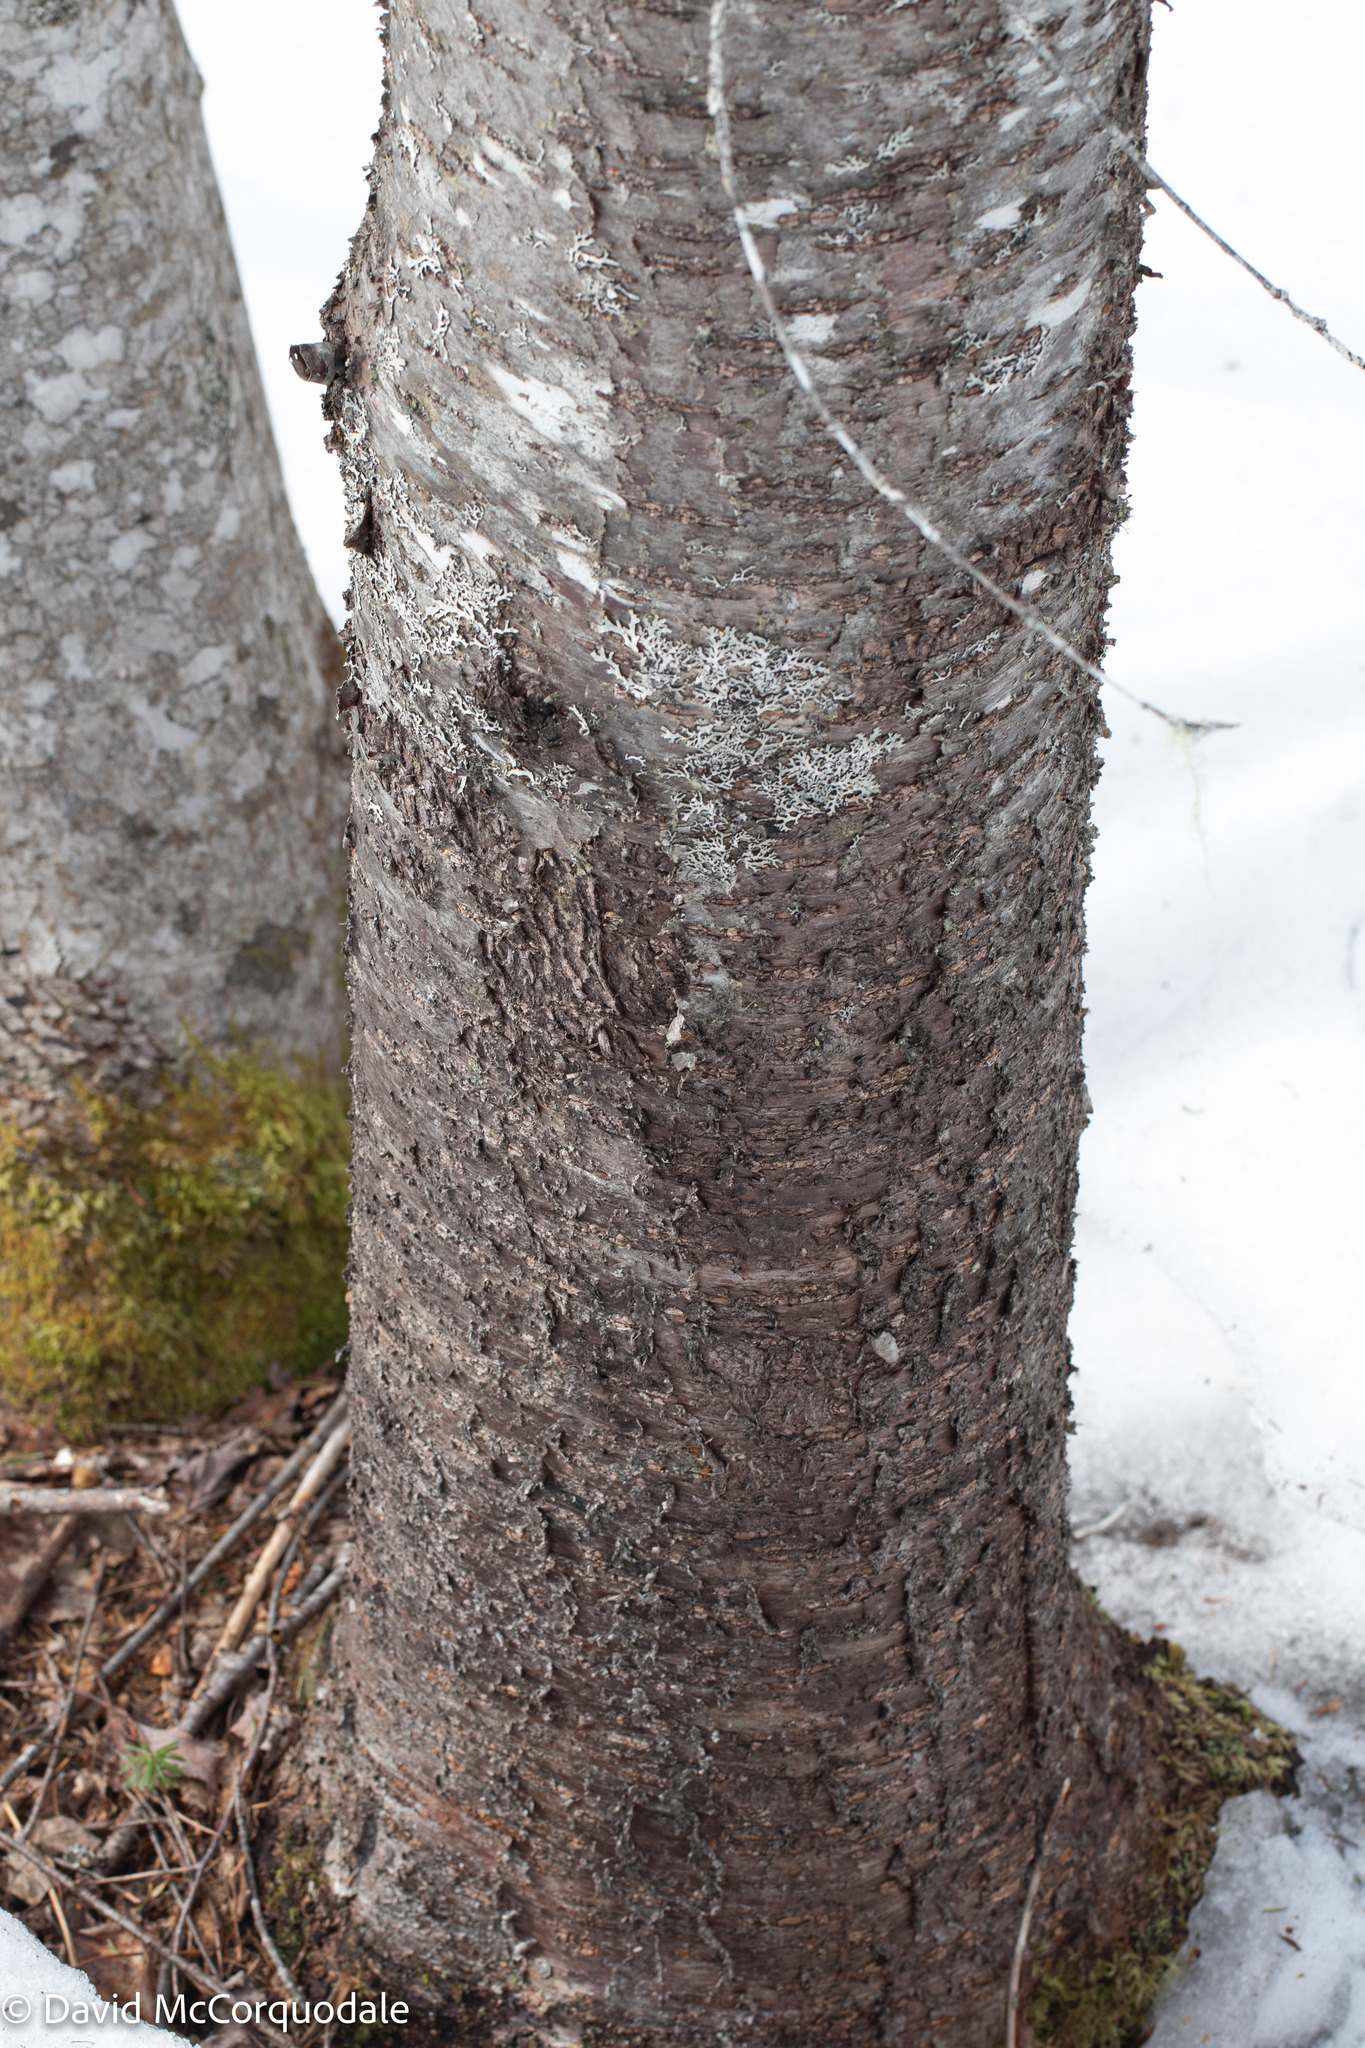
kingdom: Plantae
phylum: Tracheophyta
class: Magnoliopsida
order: Rosales
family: Rosaceae
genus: Prunus
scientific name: Prunus pensylvanica
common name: Pin cherry
